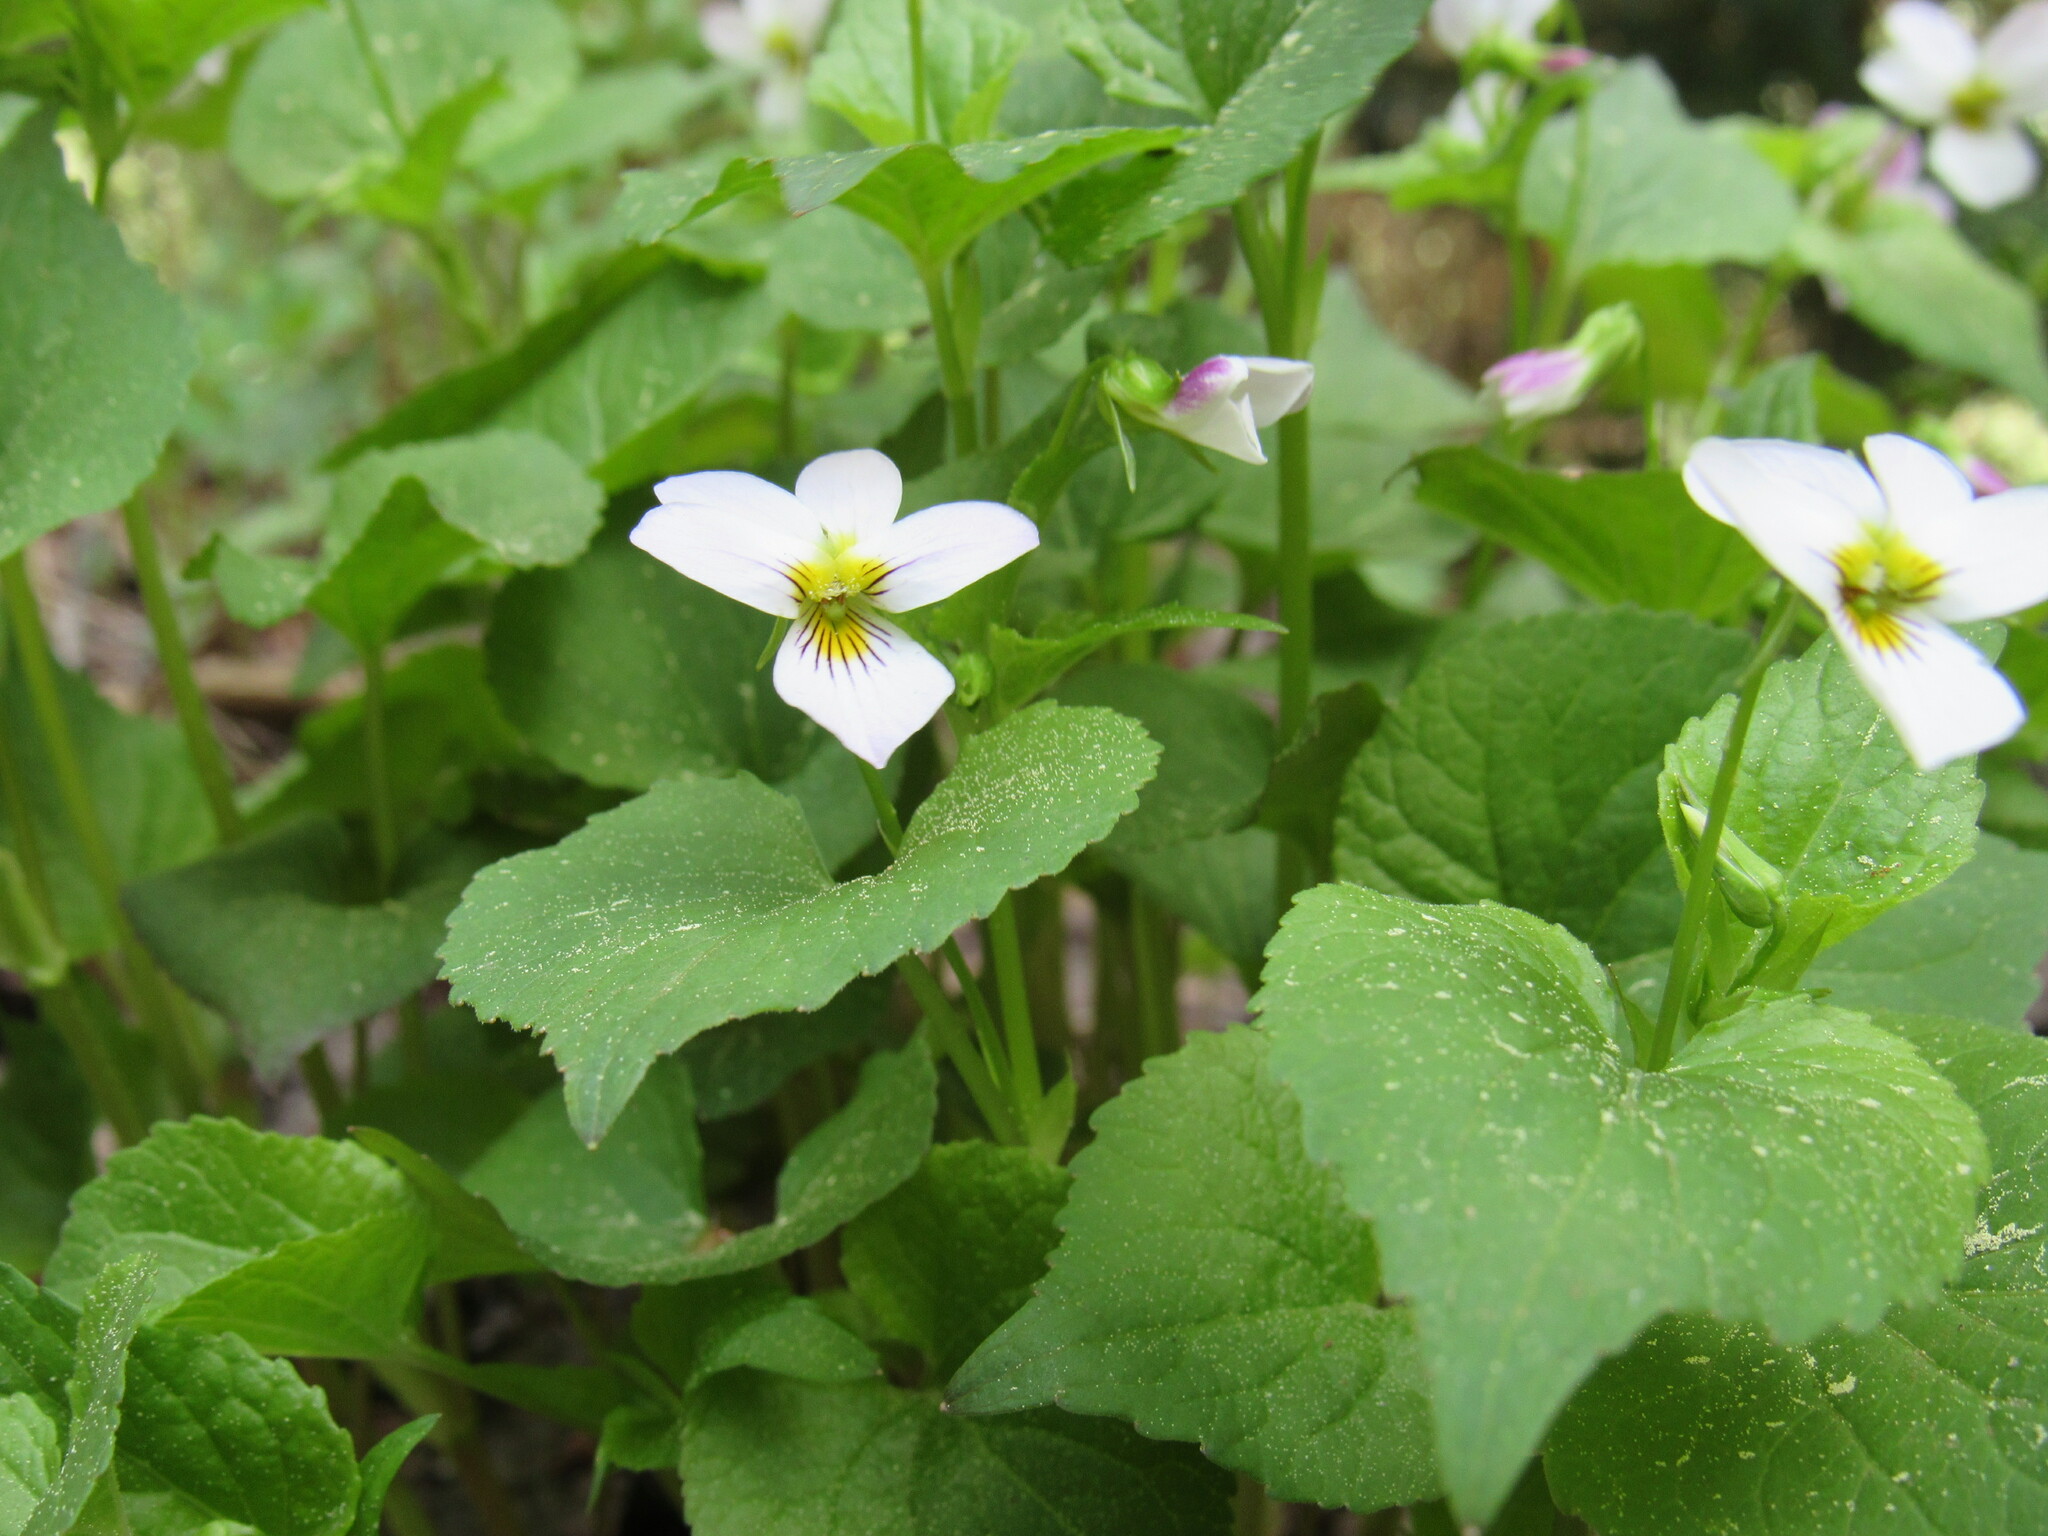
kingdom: Plantae
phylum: Tracheophyta
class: Magnoliopsida
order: Malpighiales
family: Violaceae
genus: Viola
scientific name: Viola canadensis
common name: Canada violet
